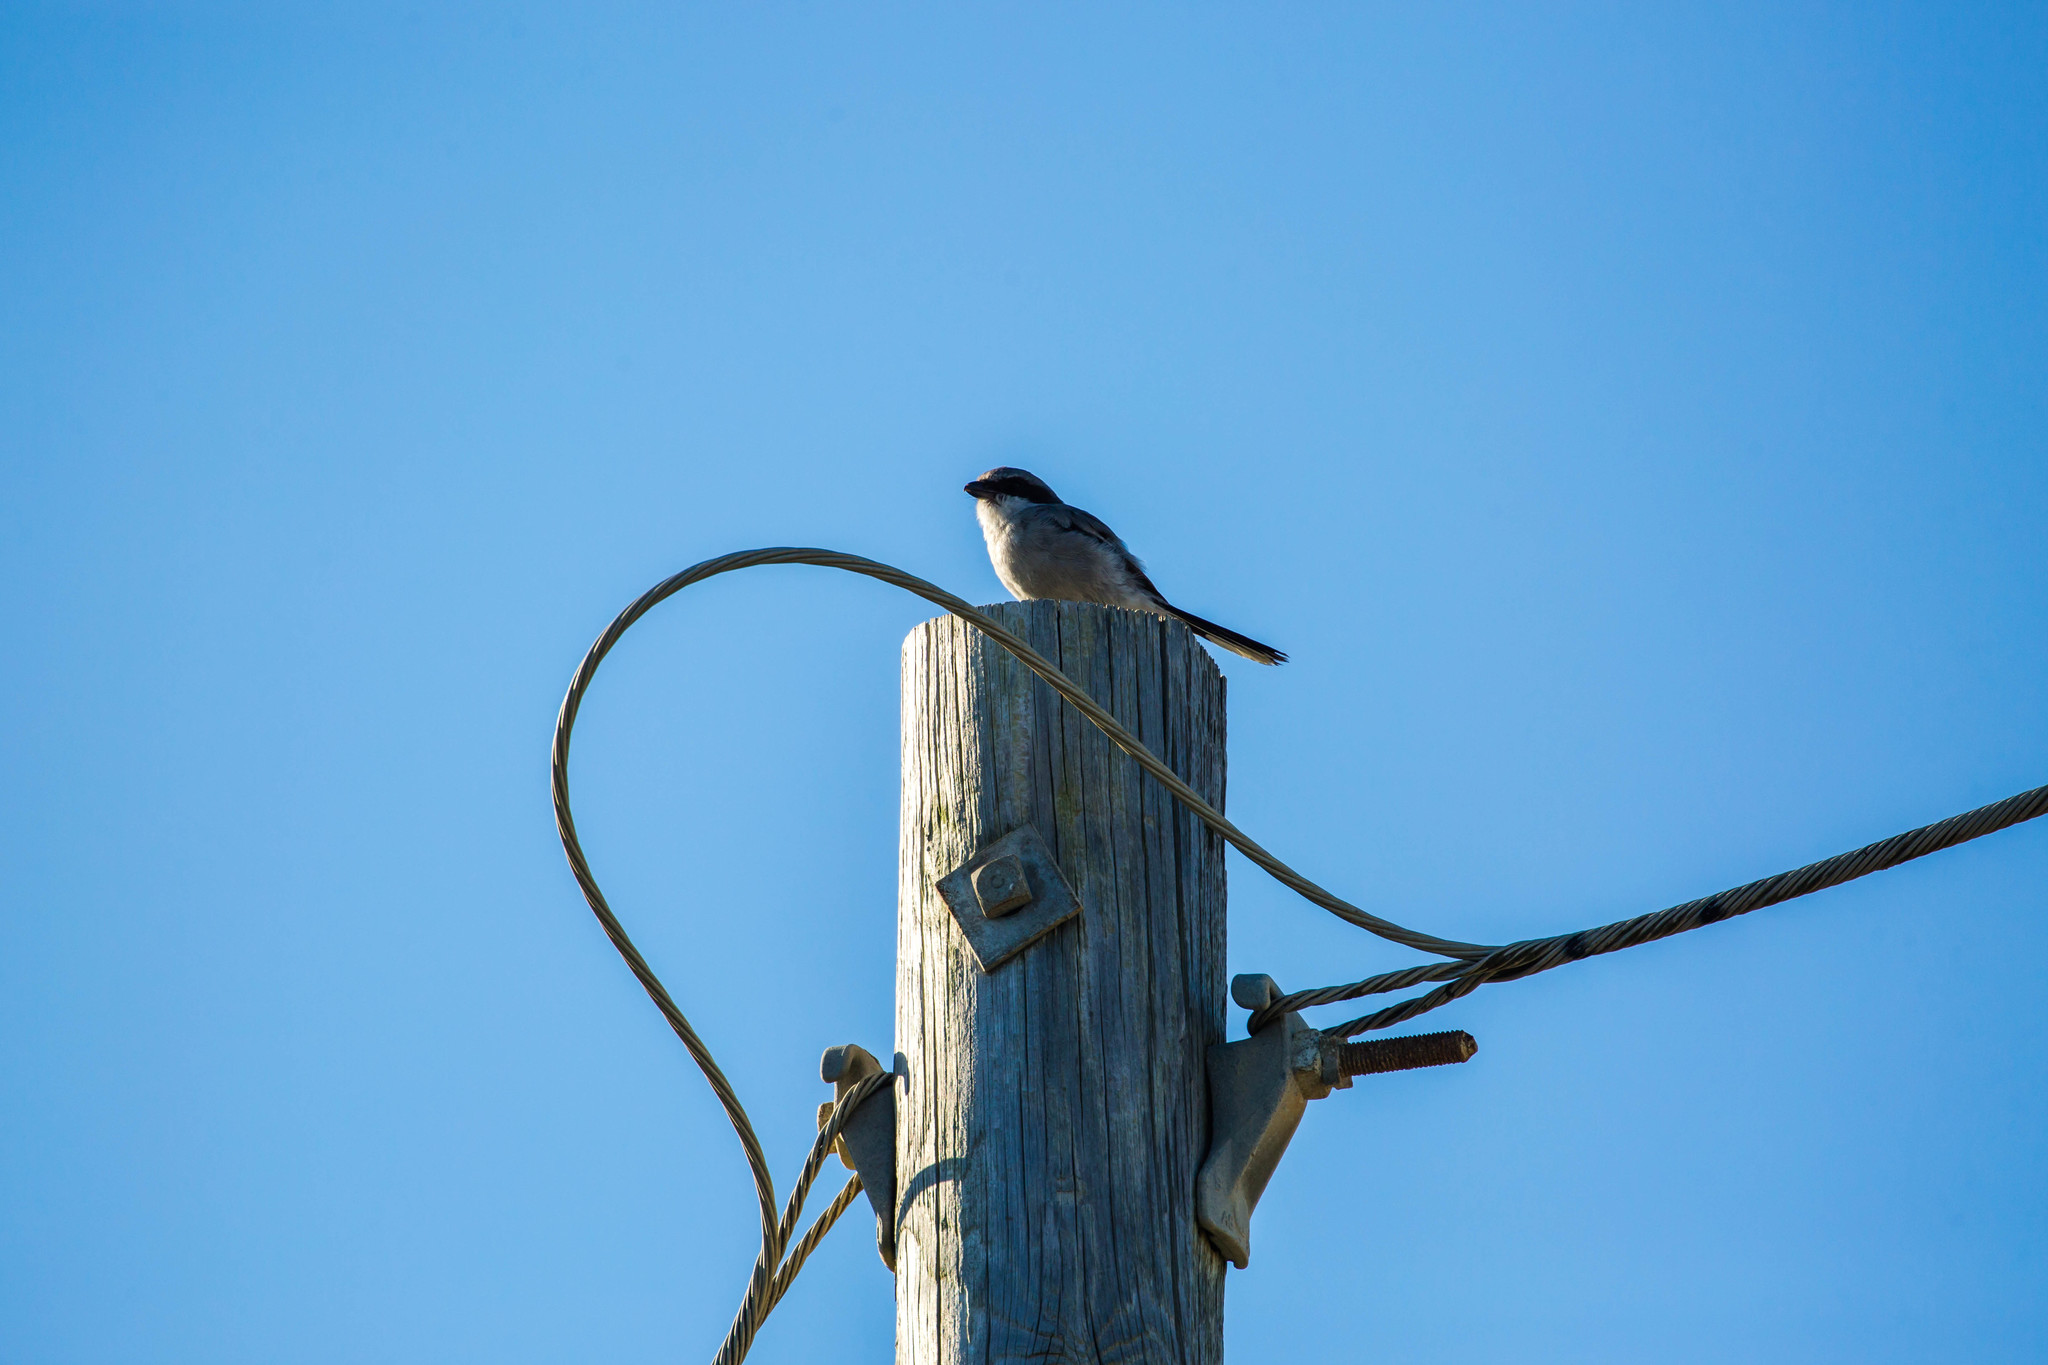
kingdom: Animalia
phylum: Chordata
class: Aves
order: Passeriformes
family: Laniidae
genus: Lanius
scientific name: Lanius ludovicianus
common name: Loggerhead shrike
